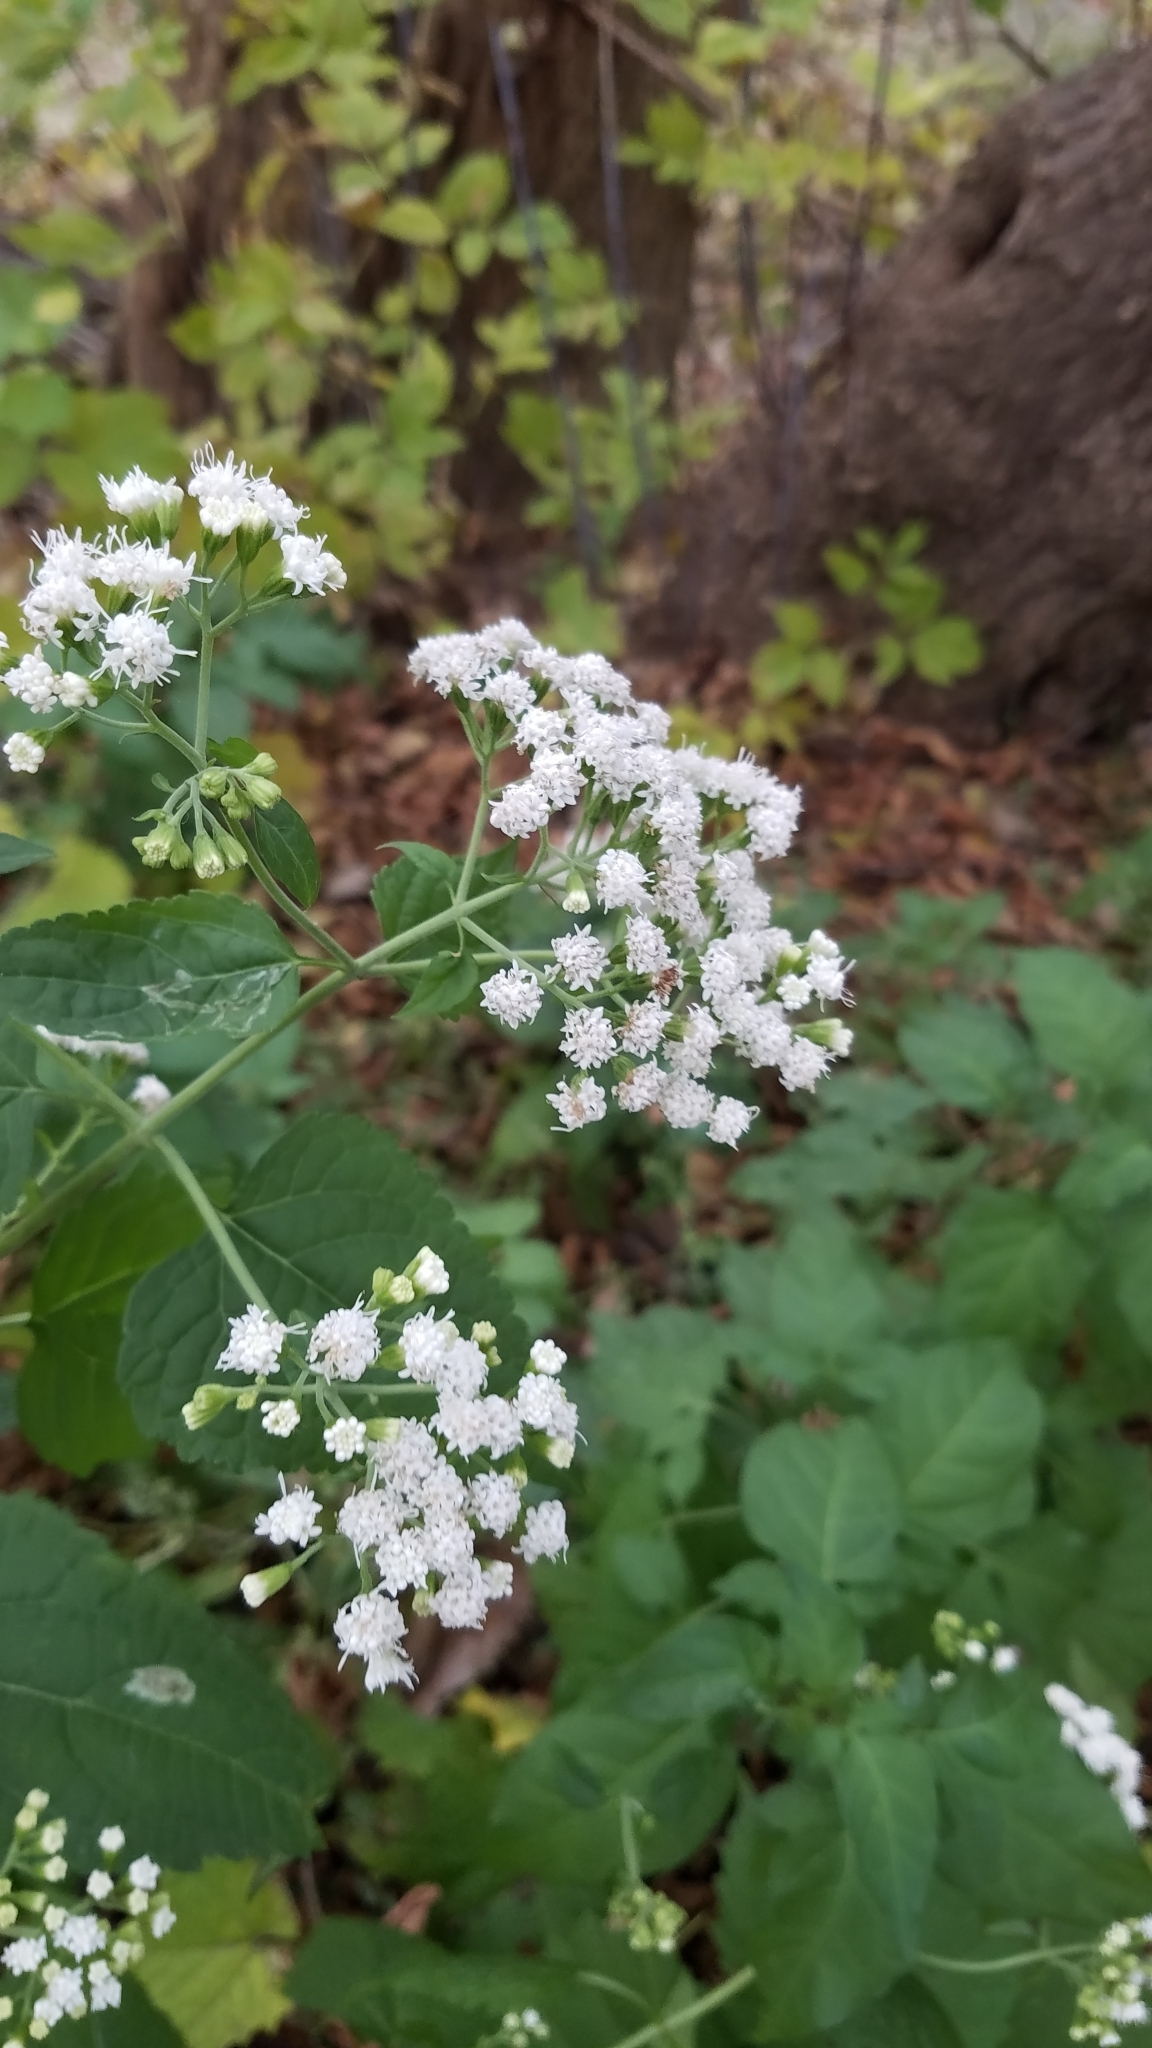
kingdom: Plantae
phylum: Tracheophyta
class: Magnoliopsida
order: Asterales
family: Asteraceae
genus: Ageratina
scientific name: Ageratina altissima
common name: White snakeroot
